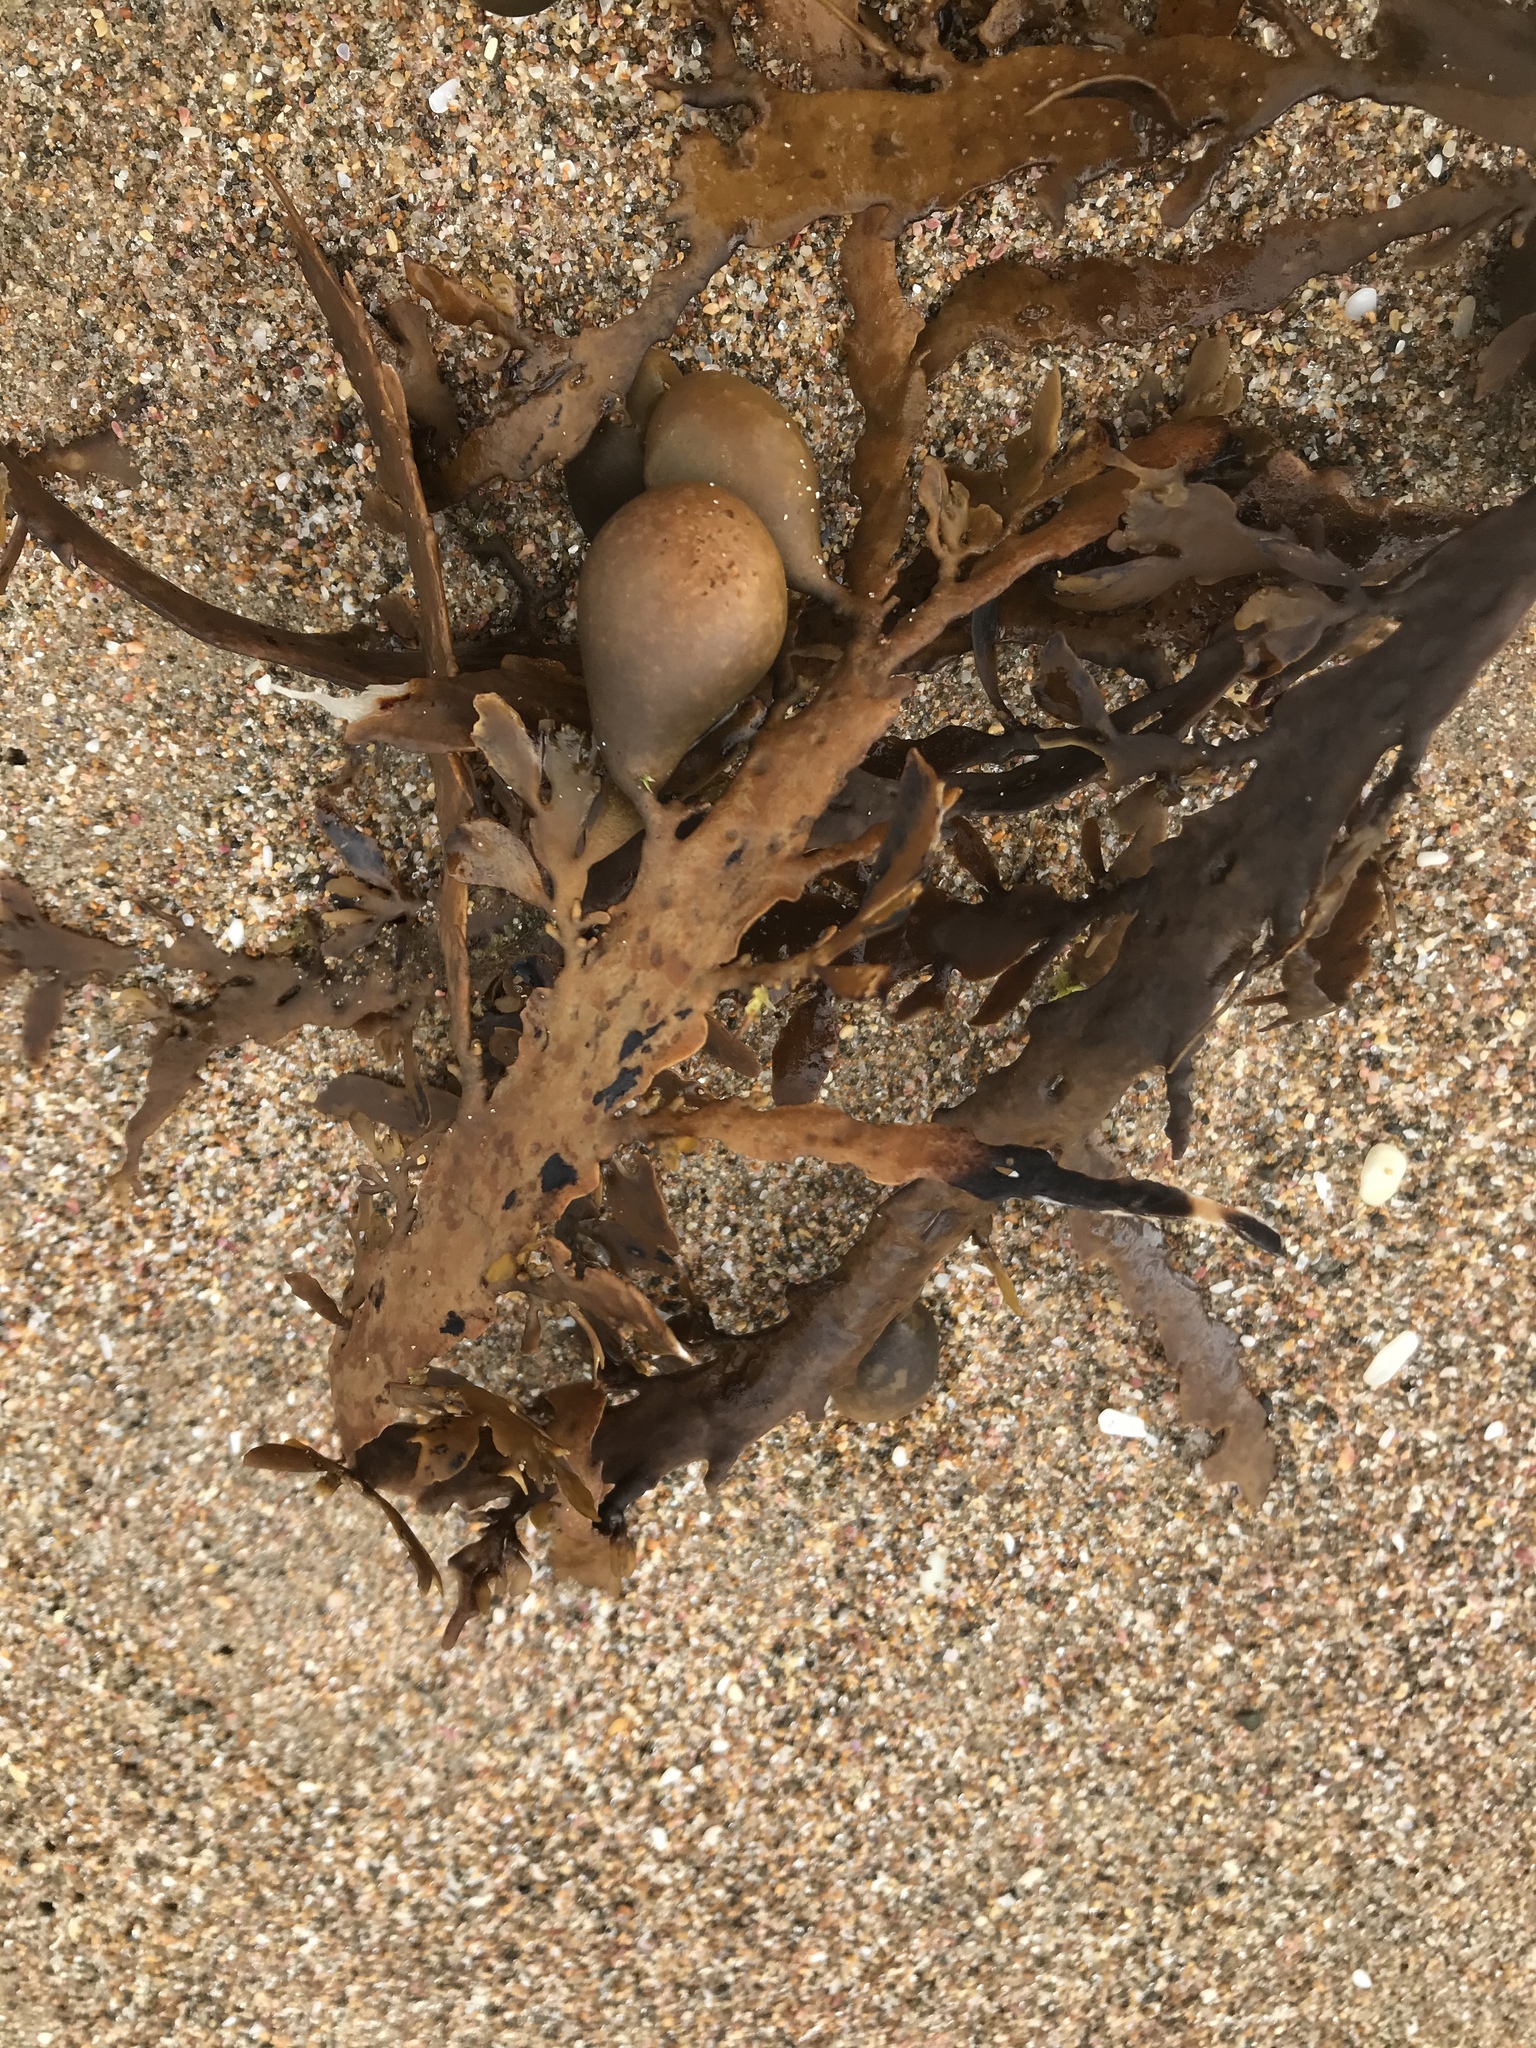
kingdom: Chromista
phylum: Ochrophyta
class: Phaeophyceae
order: Fucales
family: Sargassaceae
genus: Carpophyllum
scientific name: Carpophyllum maschalocarpum
